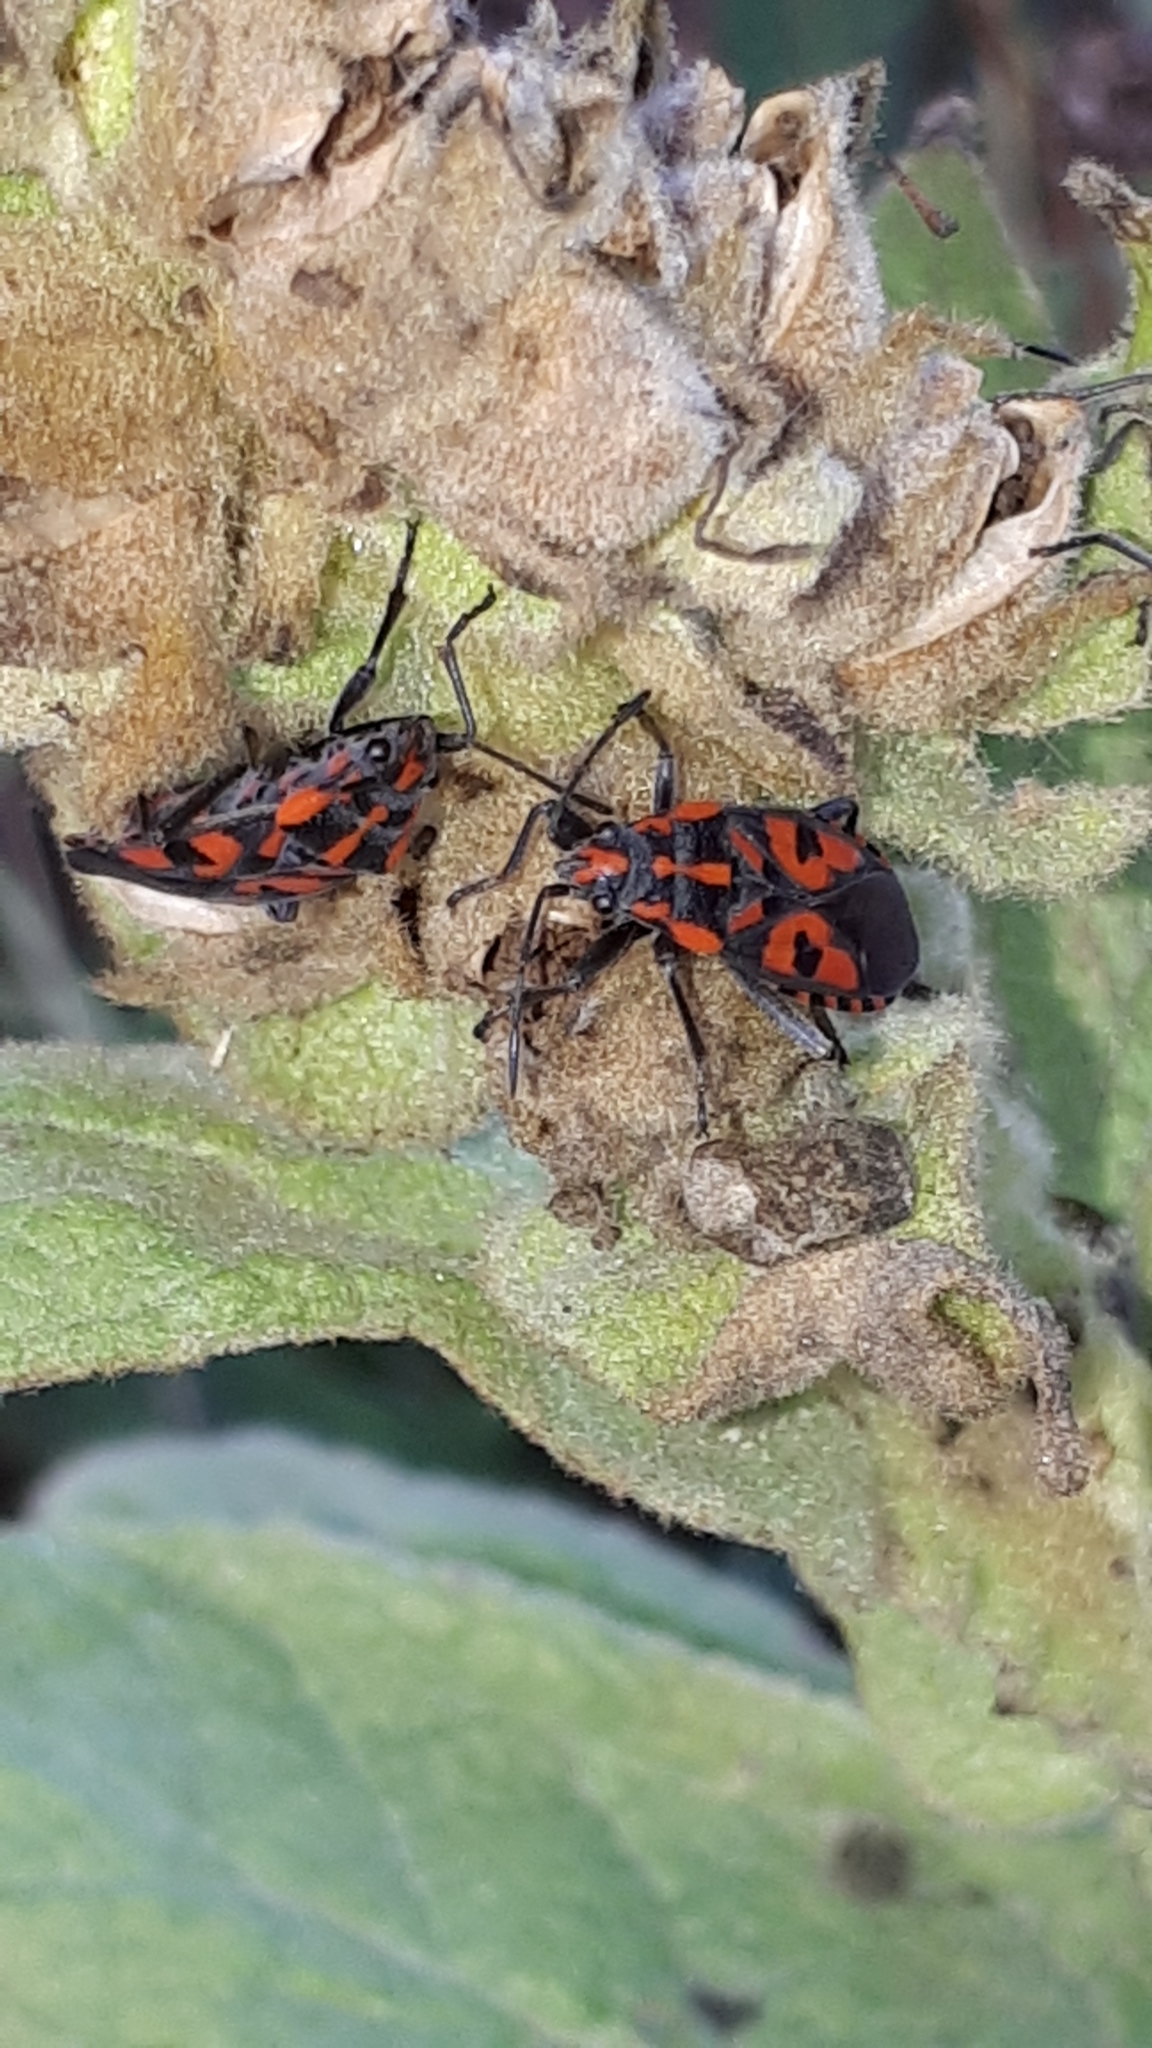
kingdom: Animalia
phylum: Arthropoda
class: Insecta
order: Hemiptera
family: Lygaeidae
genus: Spilostethus
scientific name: Spilostethus saxatilis
